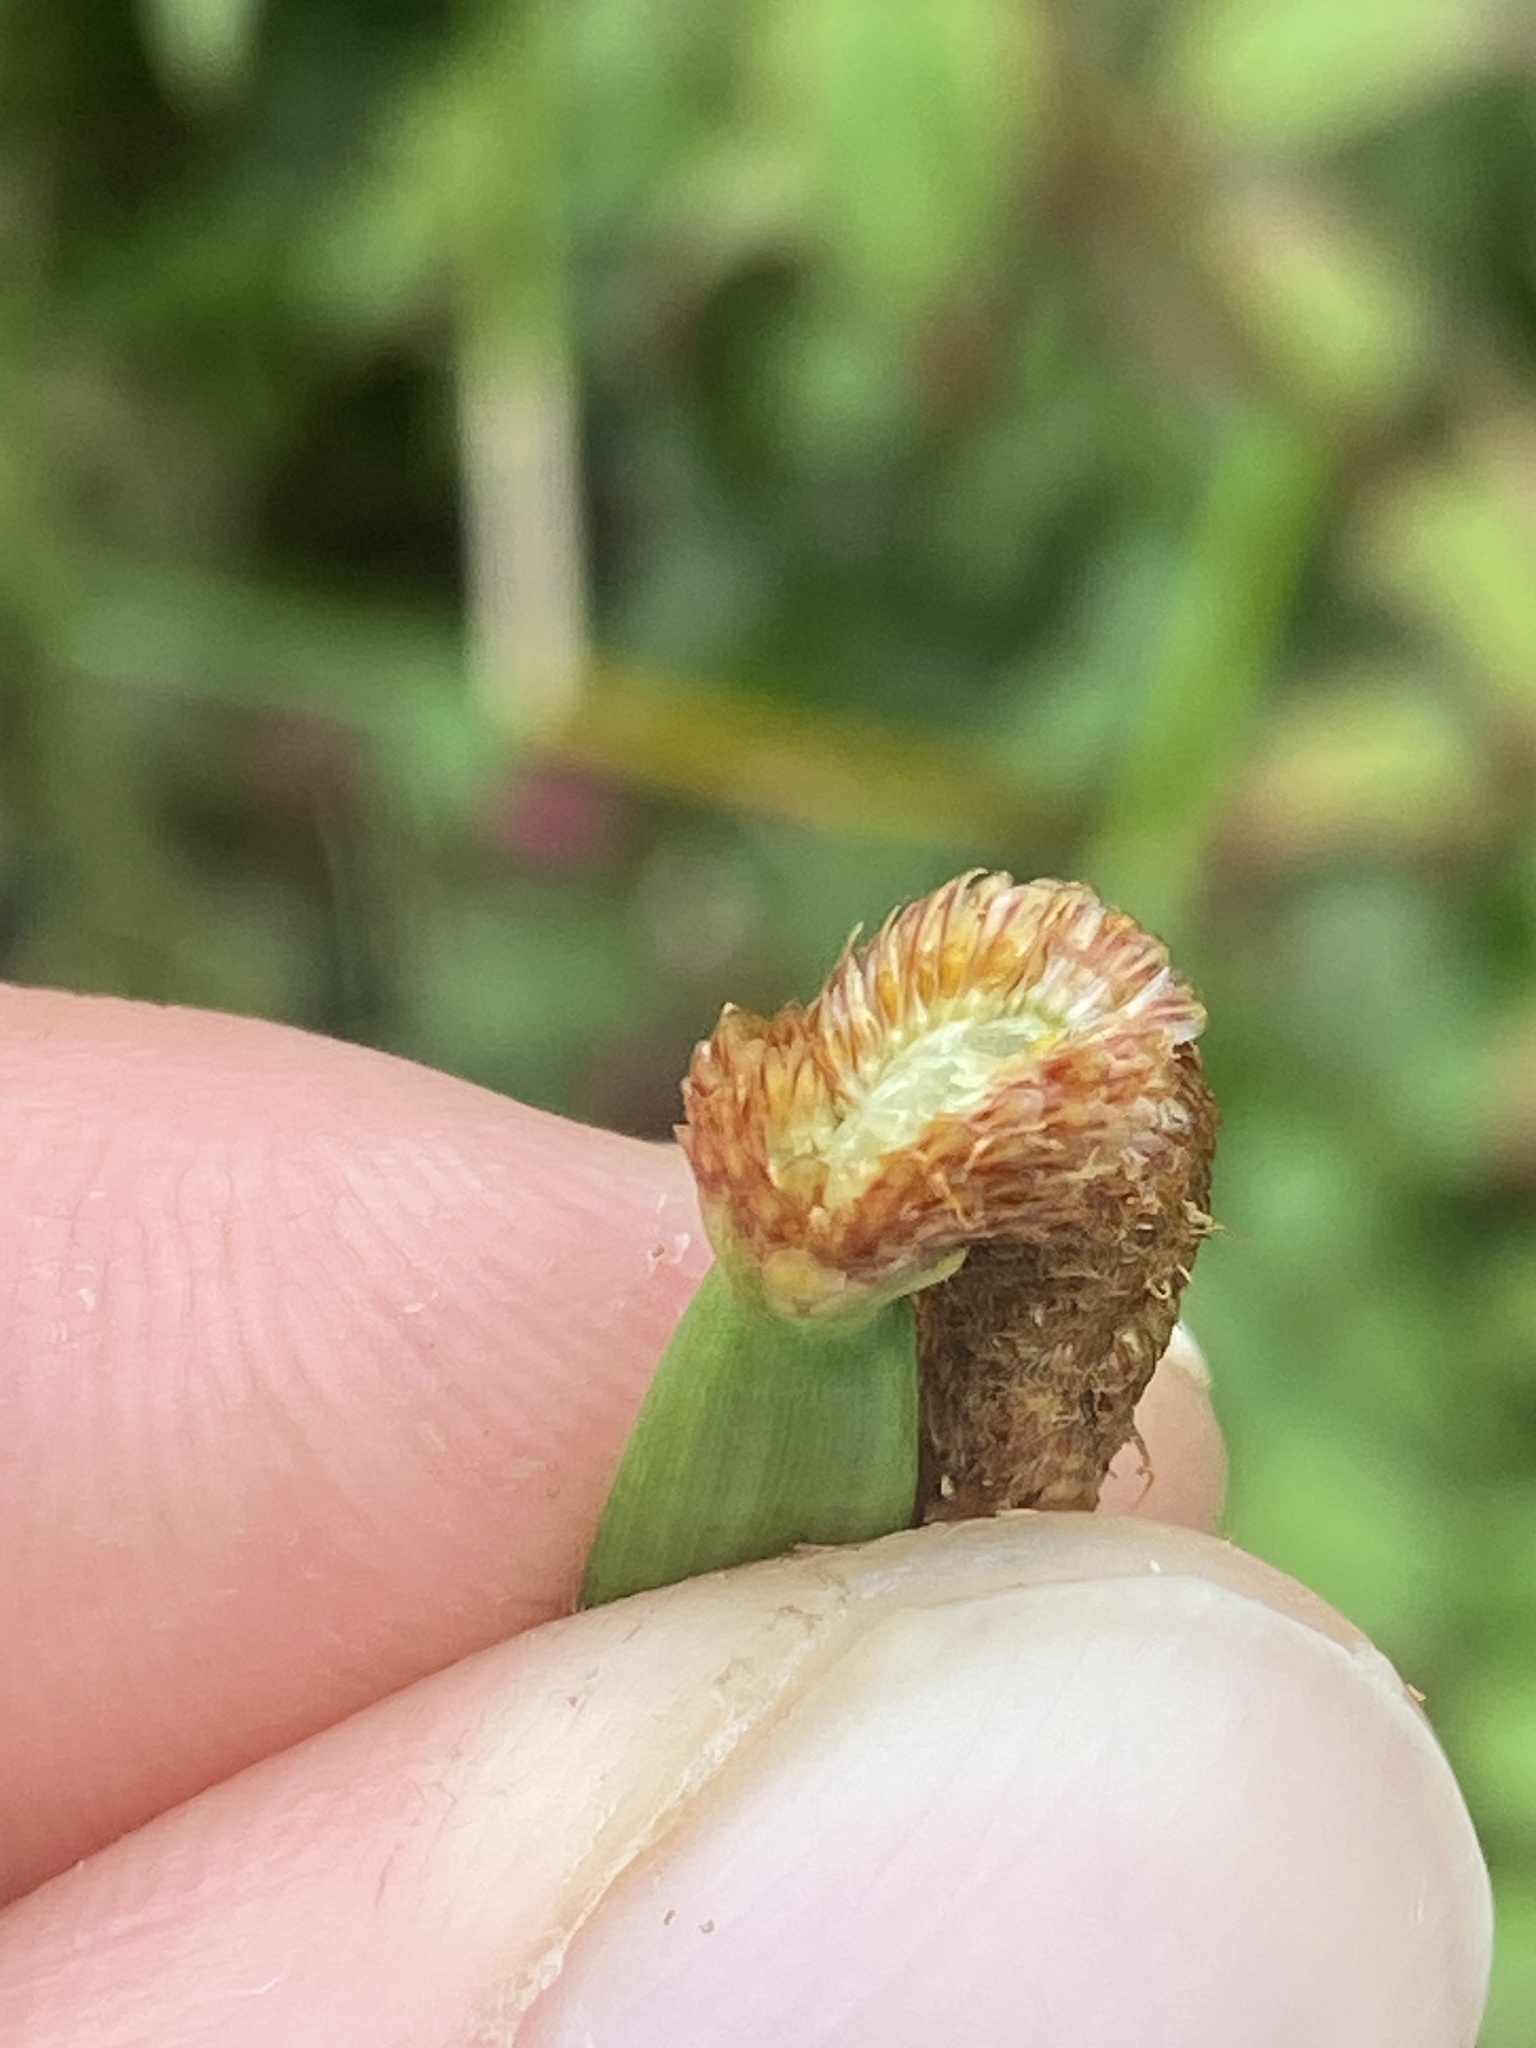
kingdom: Plantae
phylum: Tracheophyta
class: Liliopsida
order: Poales
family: Cyperaceae
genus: Eleocharis
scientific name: Eleocharis elegans
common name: Elegant spike-rush
